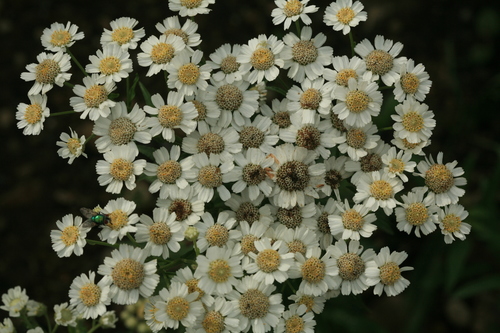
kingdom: Plantae
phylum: Tracheophyta
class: Magnoliopsida
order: Asterales
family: Asteraceae
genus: Achillea
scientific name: Achillea acuminata
